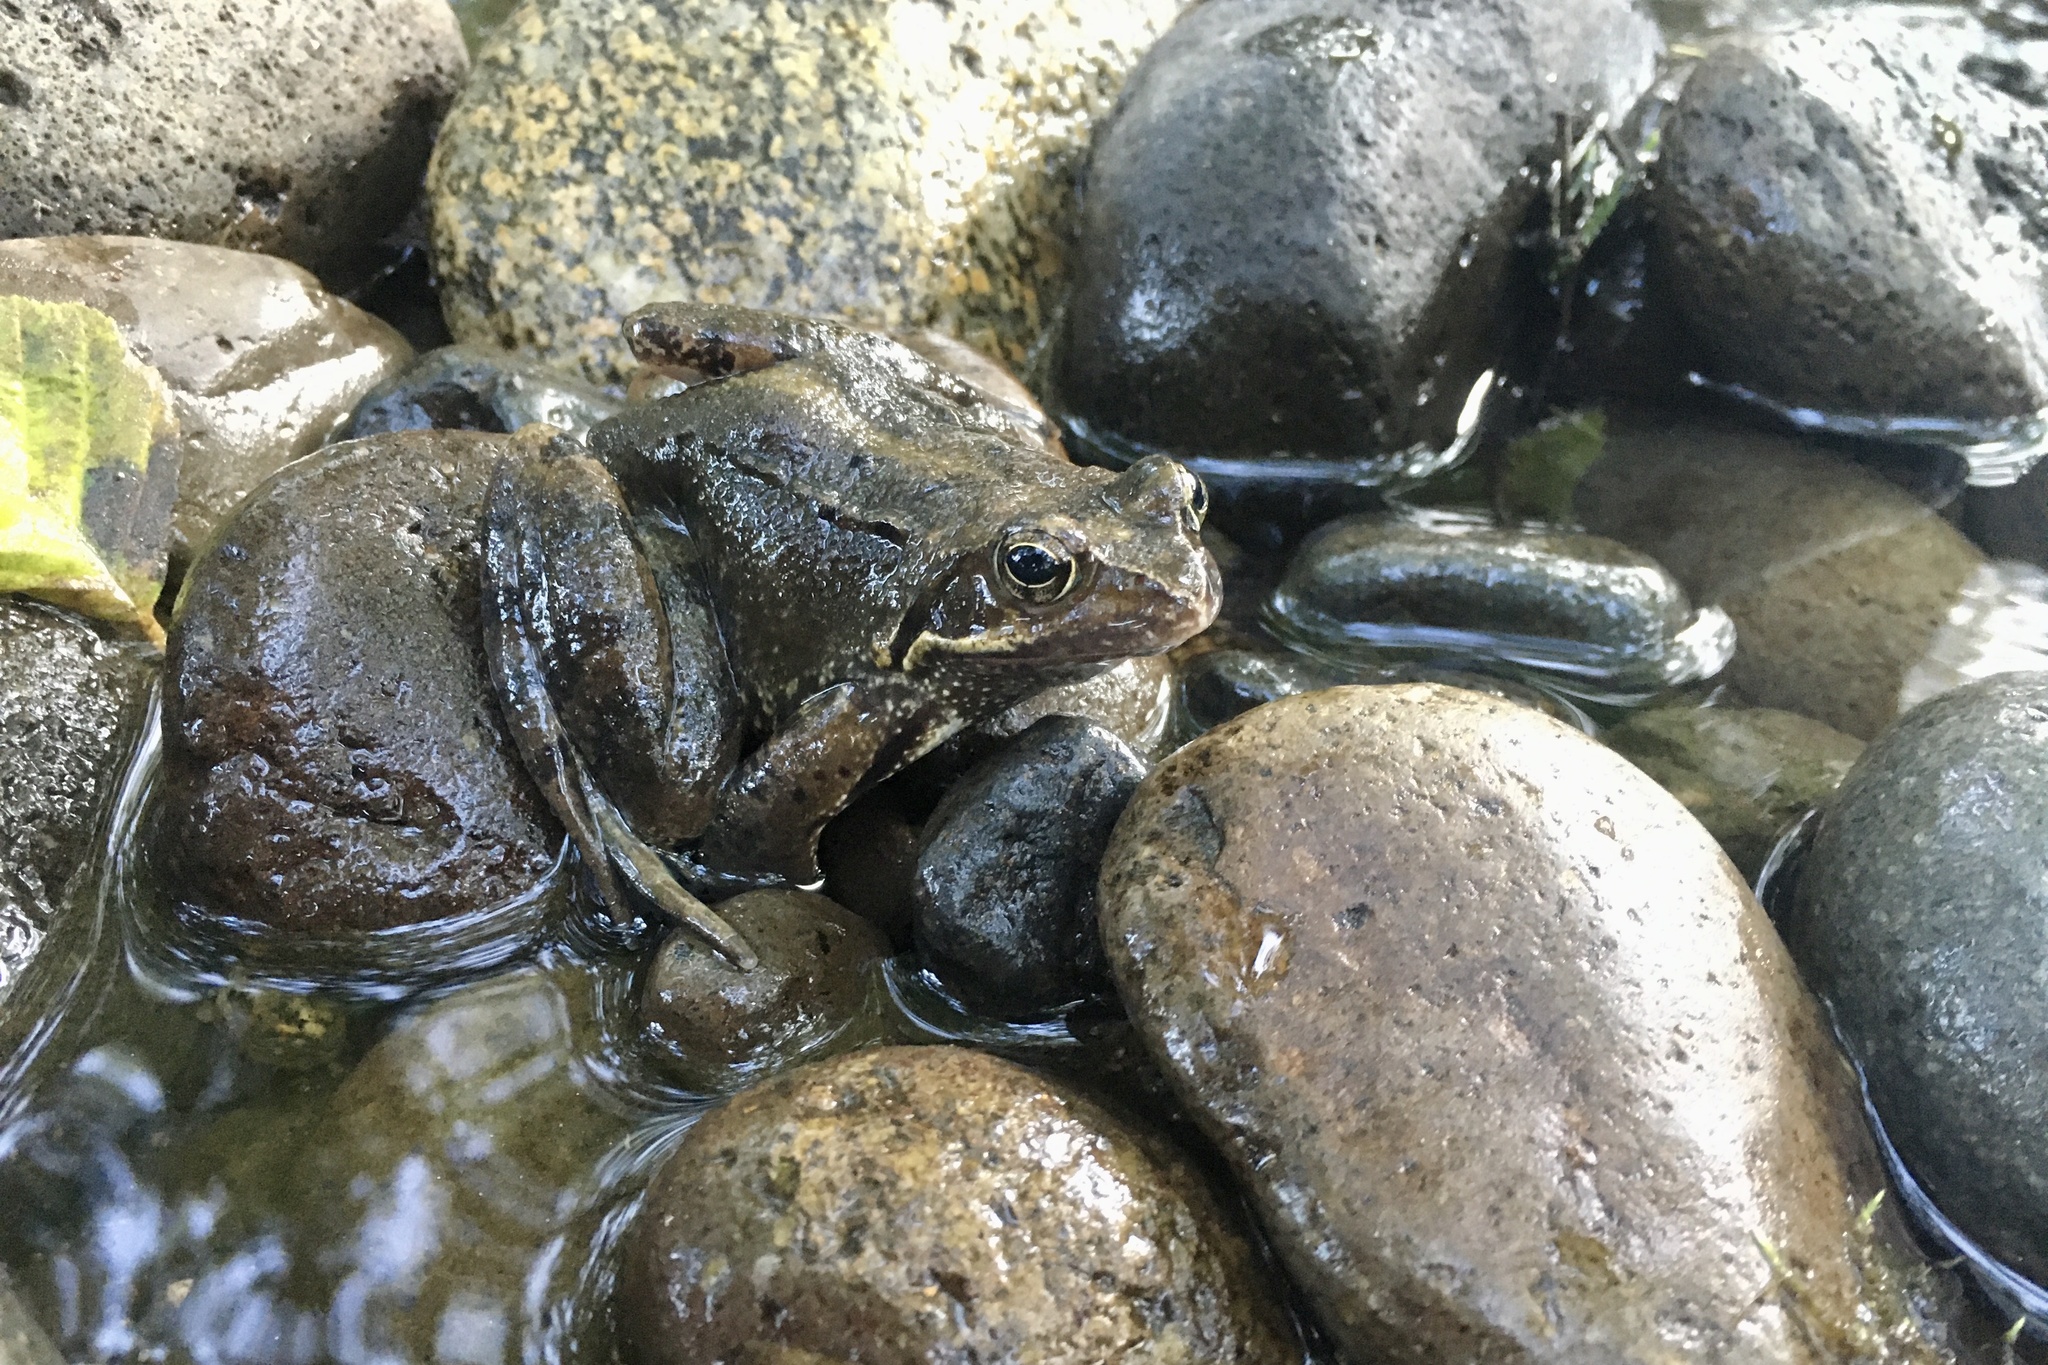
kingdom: Animalia
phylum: Chordata
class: Amphibia
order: Anura
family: Ranidae
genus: Rana
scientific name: Rana temporaria
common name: Common frog
